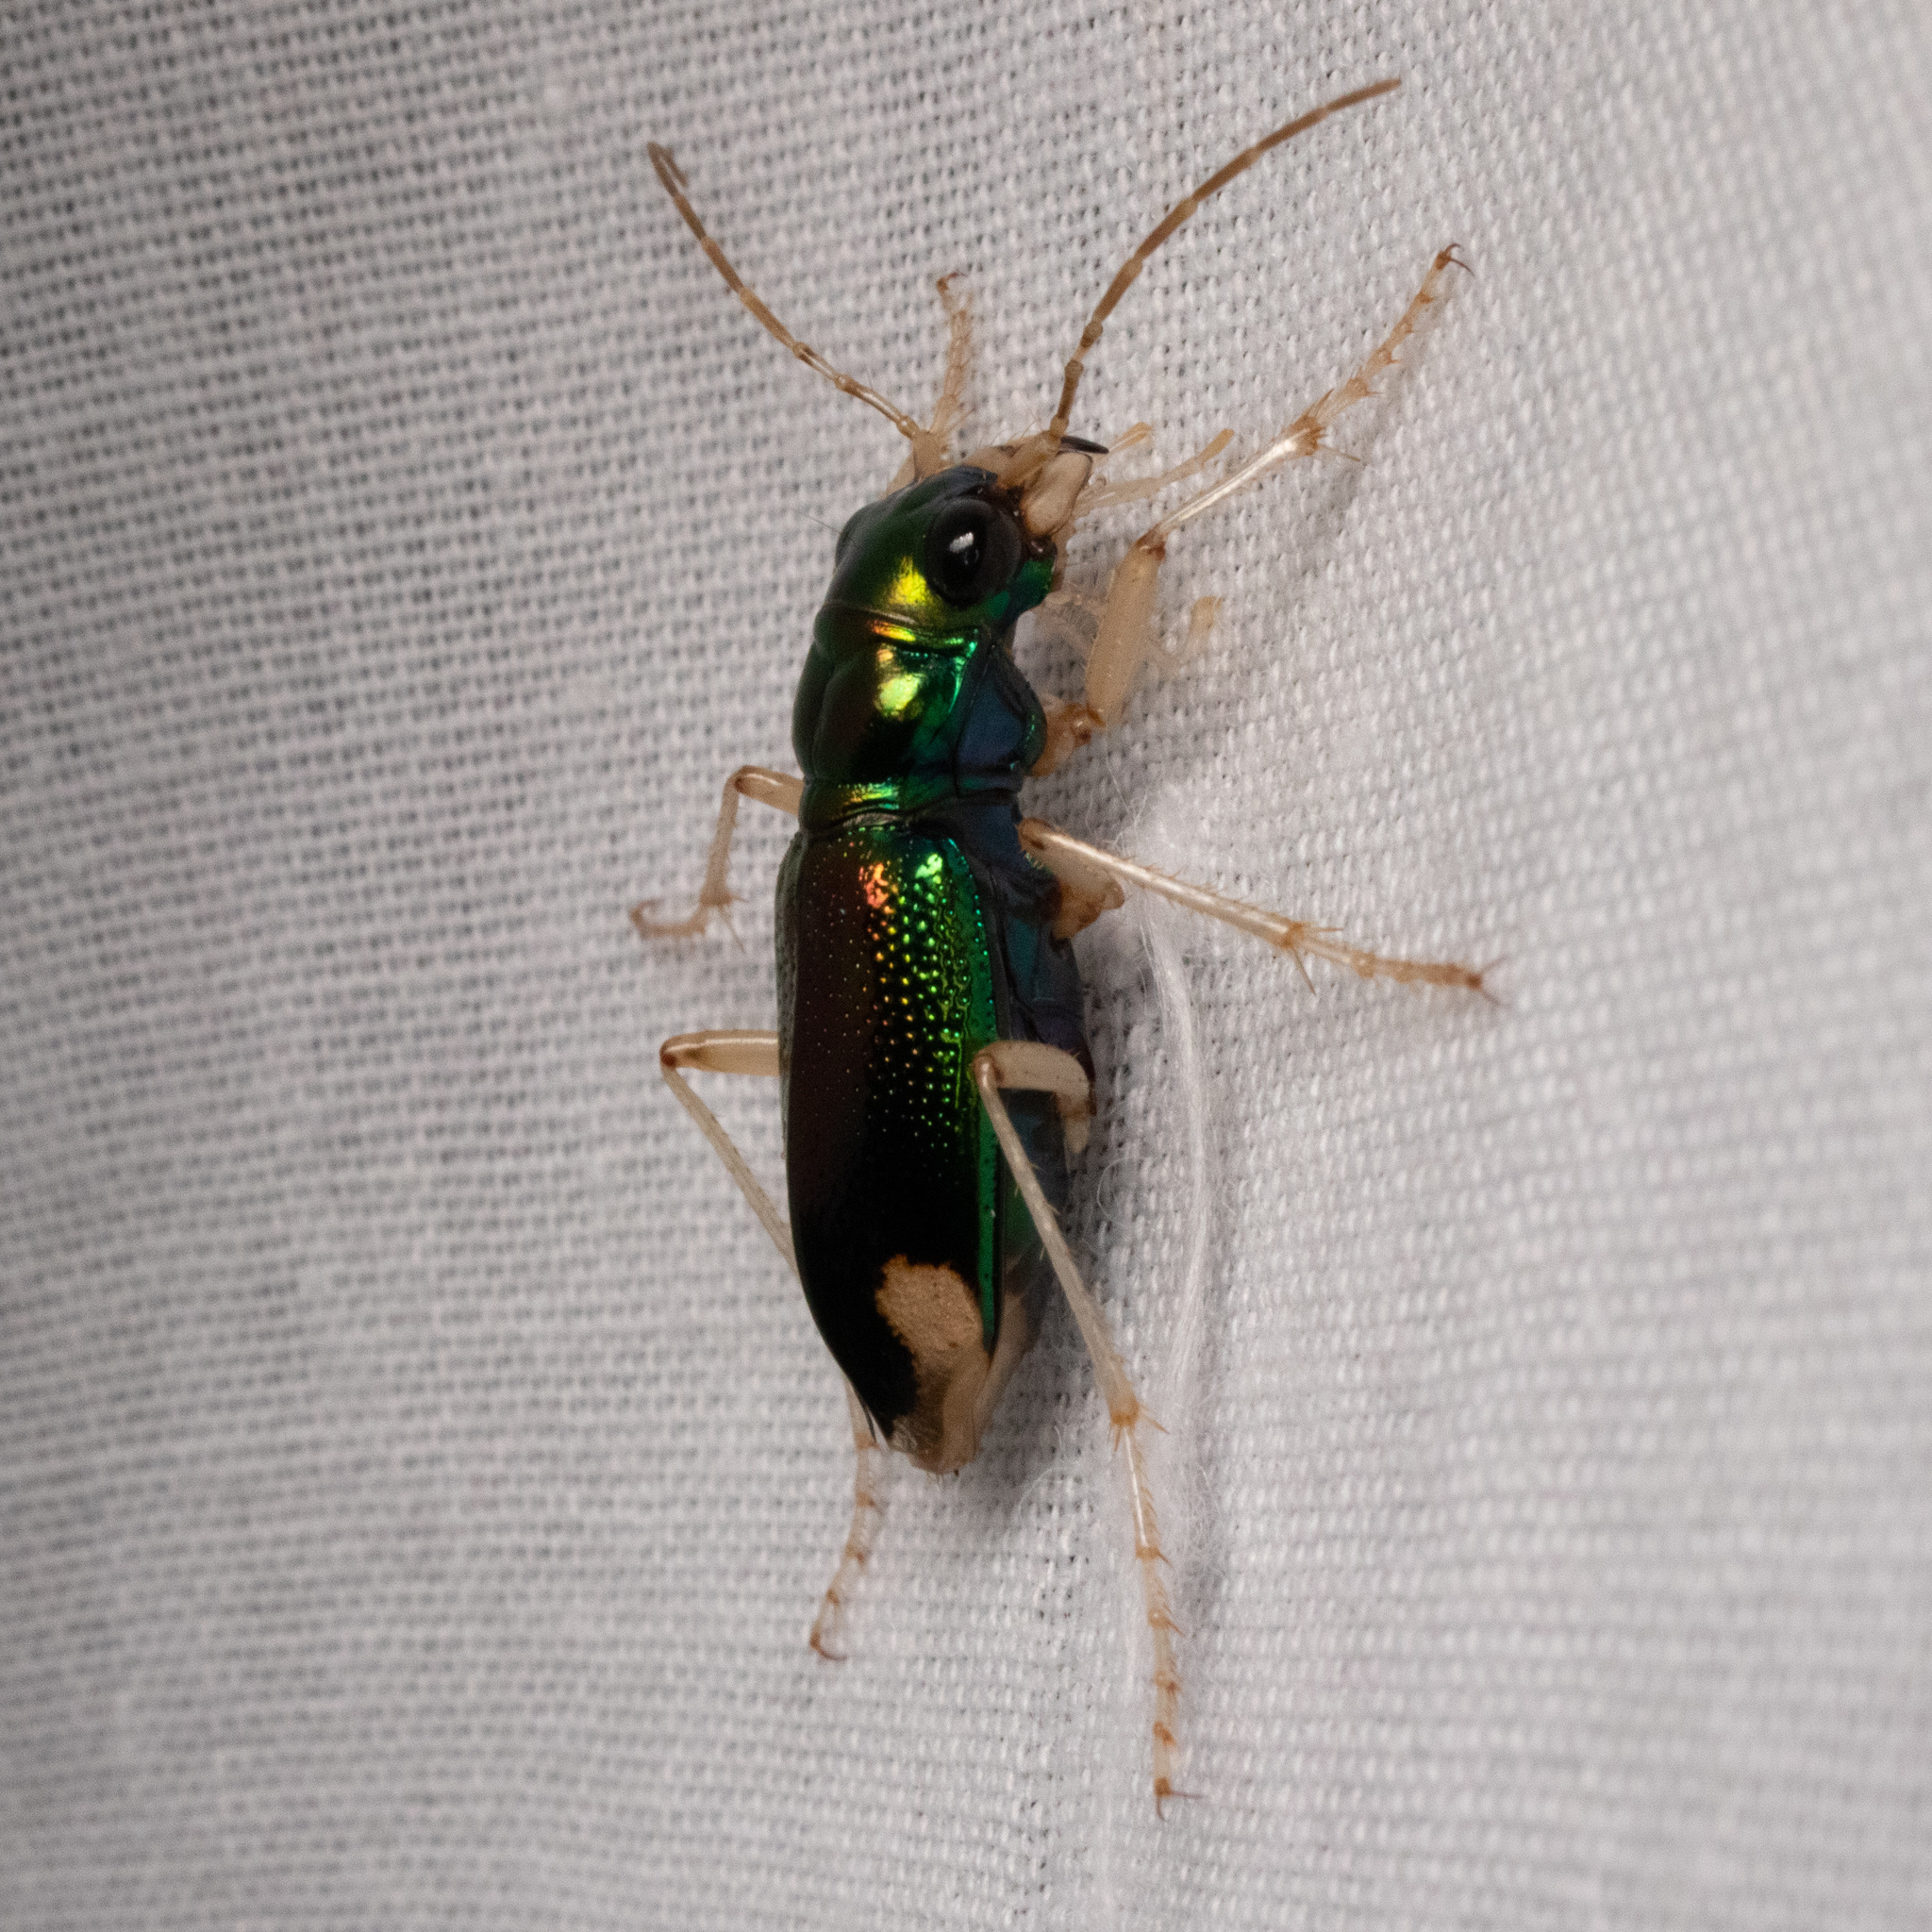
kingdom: Animalia
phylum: Arthropoda
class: Insecta
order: Coleoptera
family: Carabidae
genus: Tetracha
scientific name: Tetracha carolina
